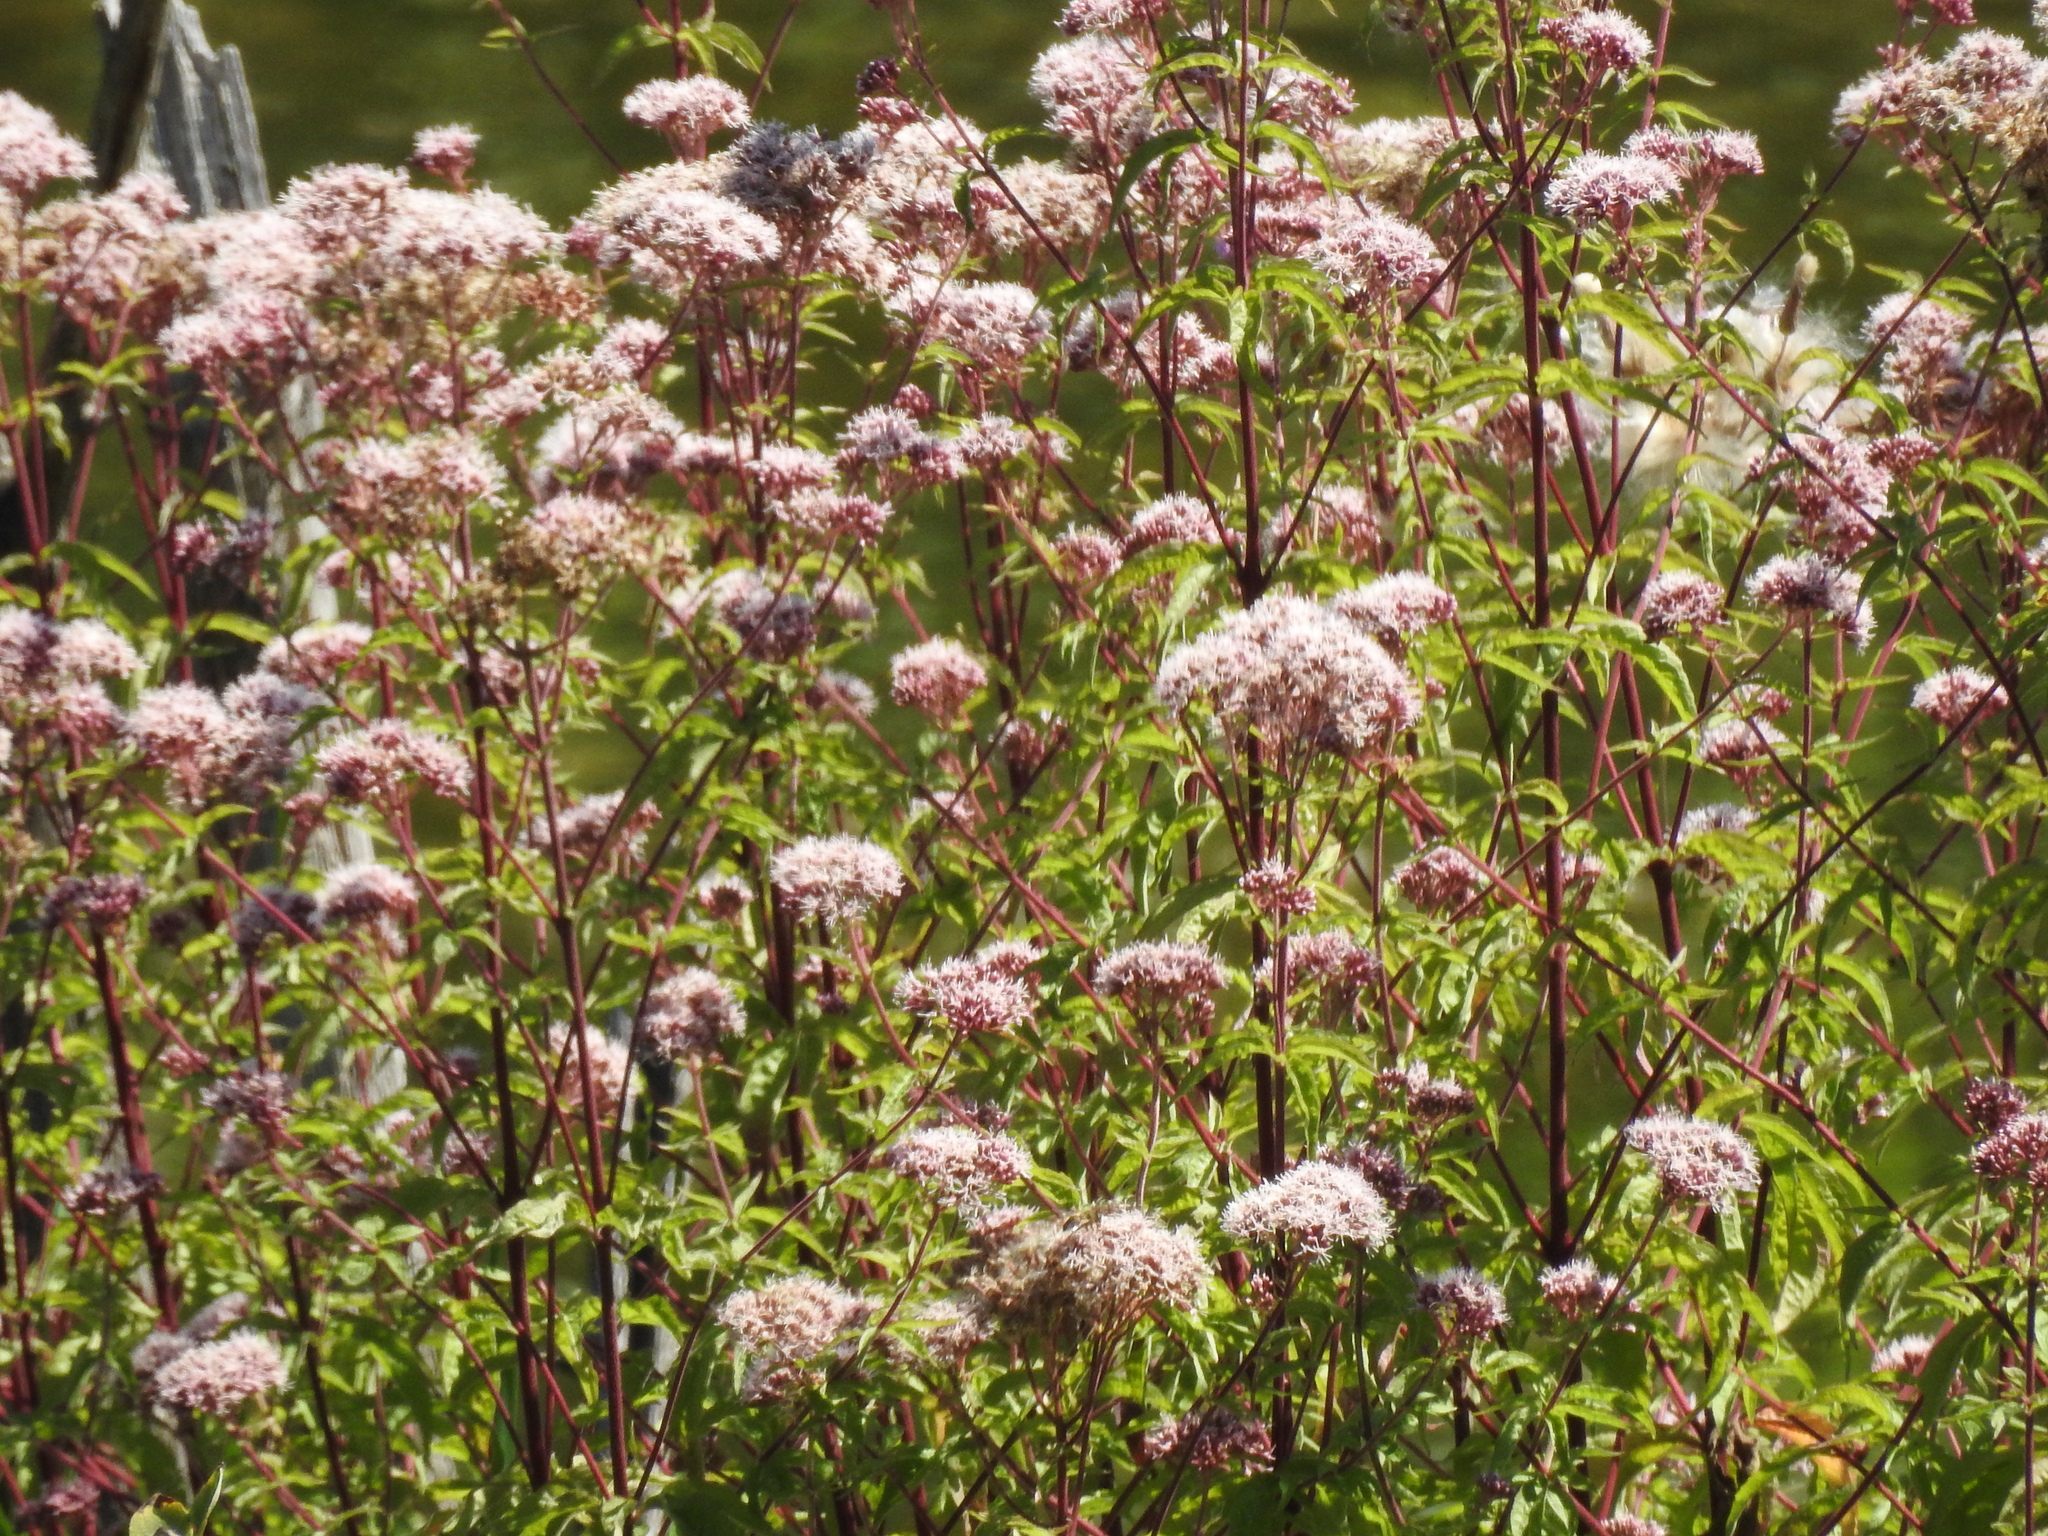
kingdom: Plantae
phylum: Tracheophyta
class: Magnoliopsida
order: Asterales
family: Asteraceae
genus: Eupatorium
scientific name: Eupatorium cannabinum
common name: Hemp-agrimony
